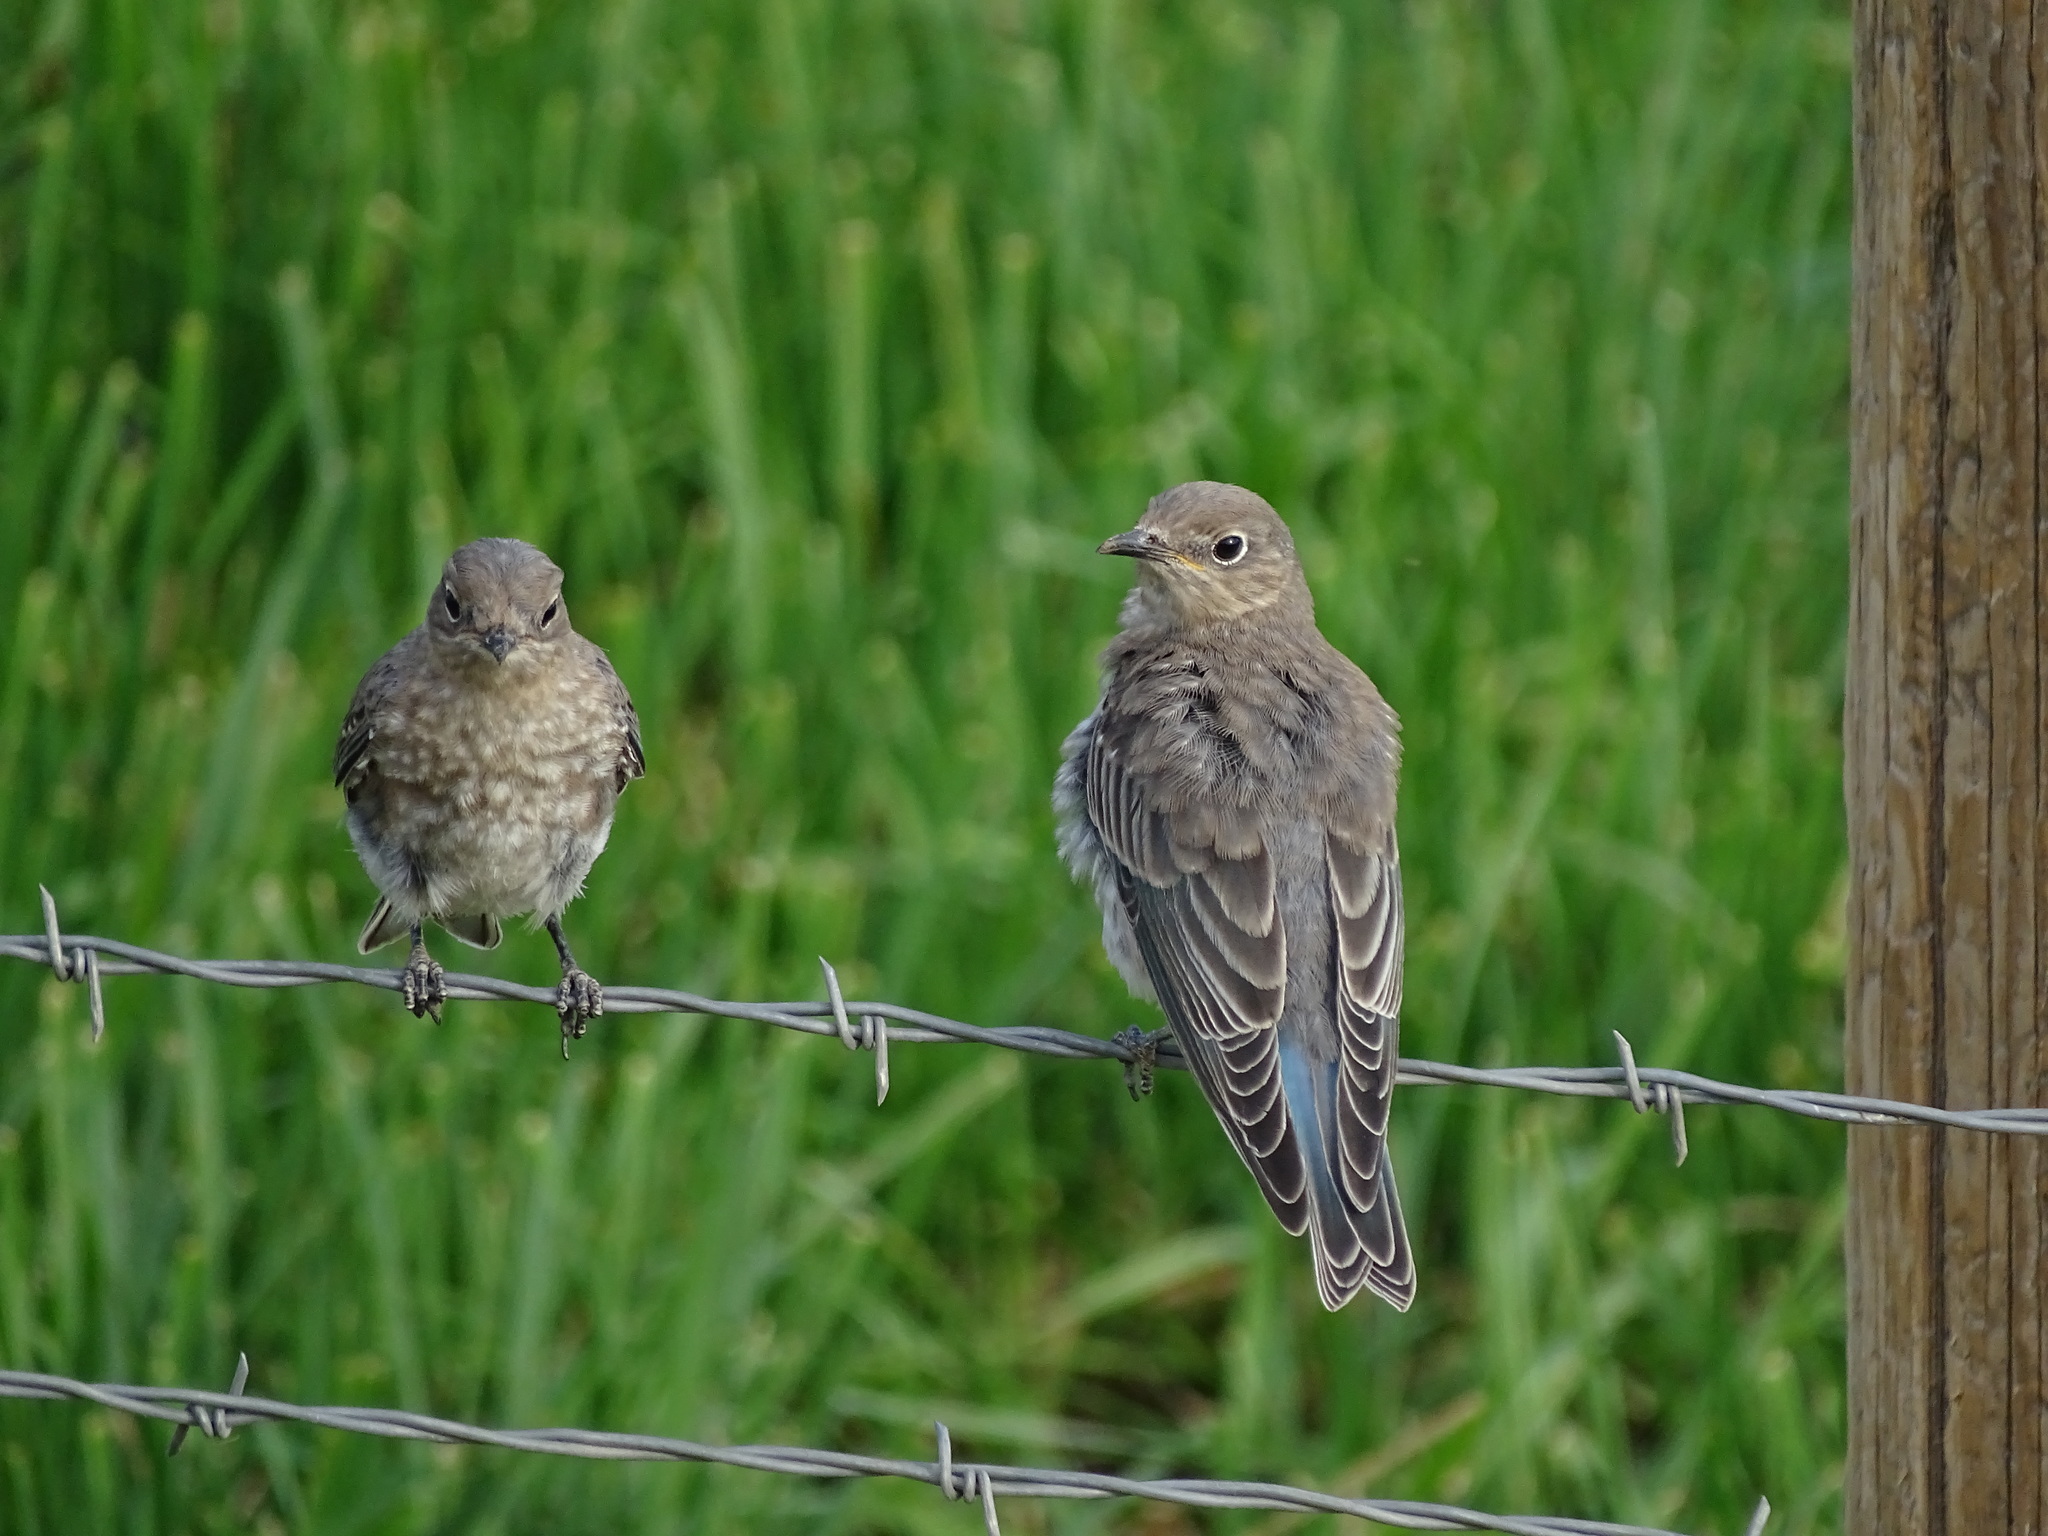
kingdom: Animalia
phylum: Chordata
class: Aves
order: Passeriformes
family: Turdidae
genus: Sialia
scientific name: Sialia currucoides
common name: Mountain bluebird
